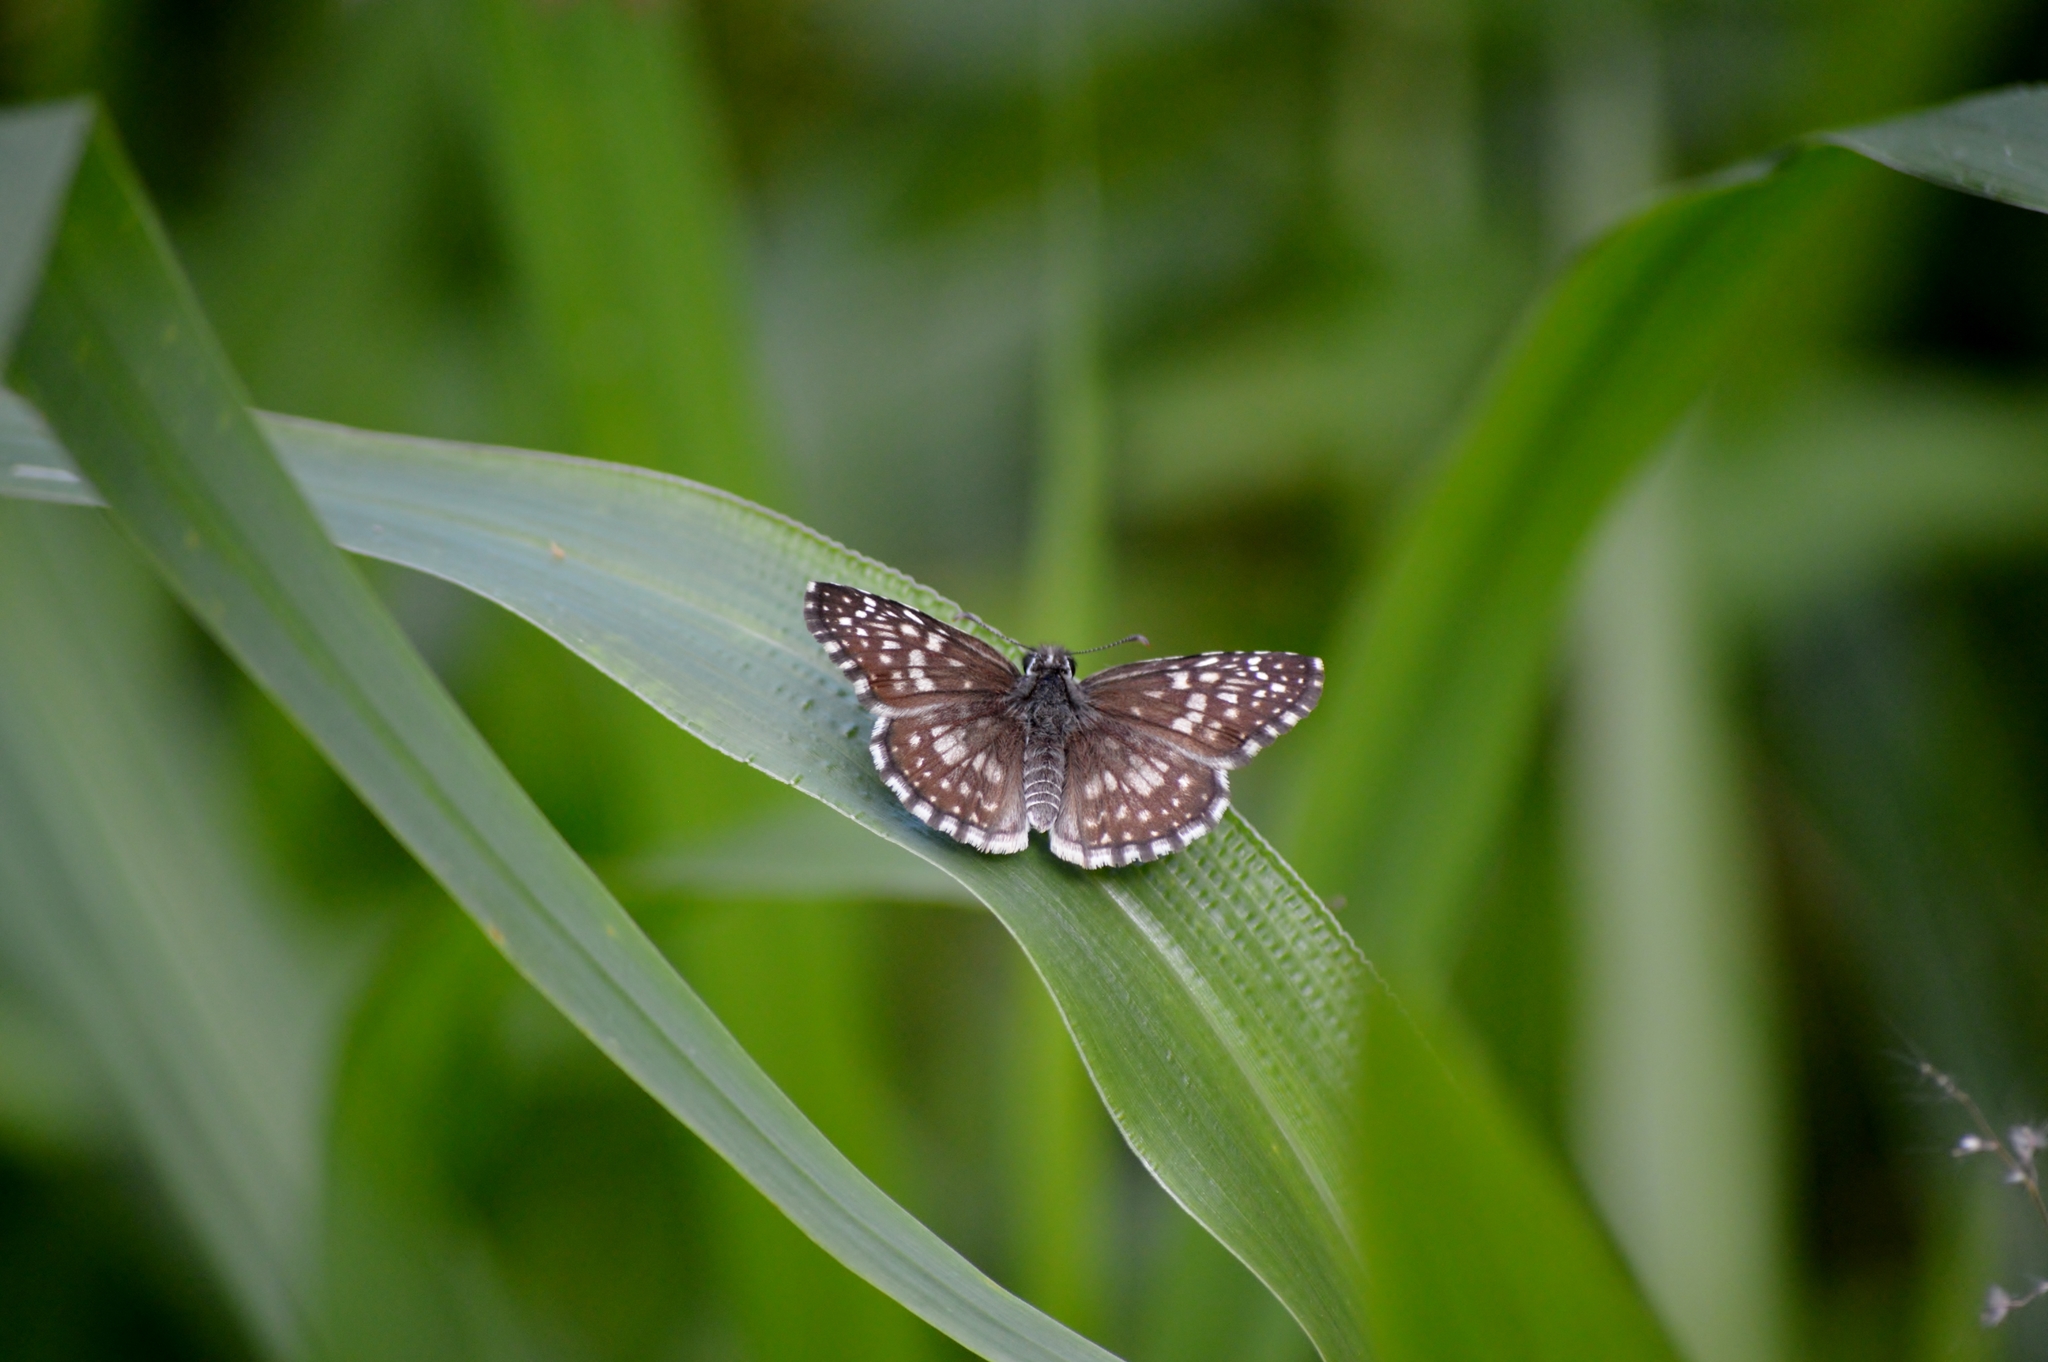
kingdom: Animalia
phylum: Arthropoda
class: Insecta
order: Lepidoptera
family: Hesperiidae
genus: Pyrgus
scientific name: Pyrgus oileus
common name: Tropical checkered-skipper
